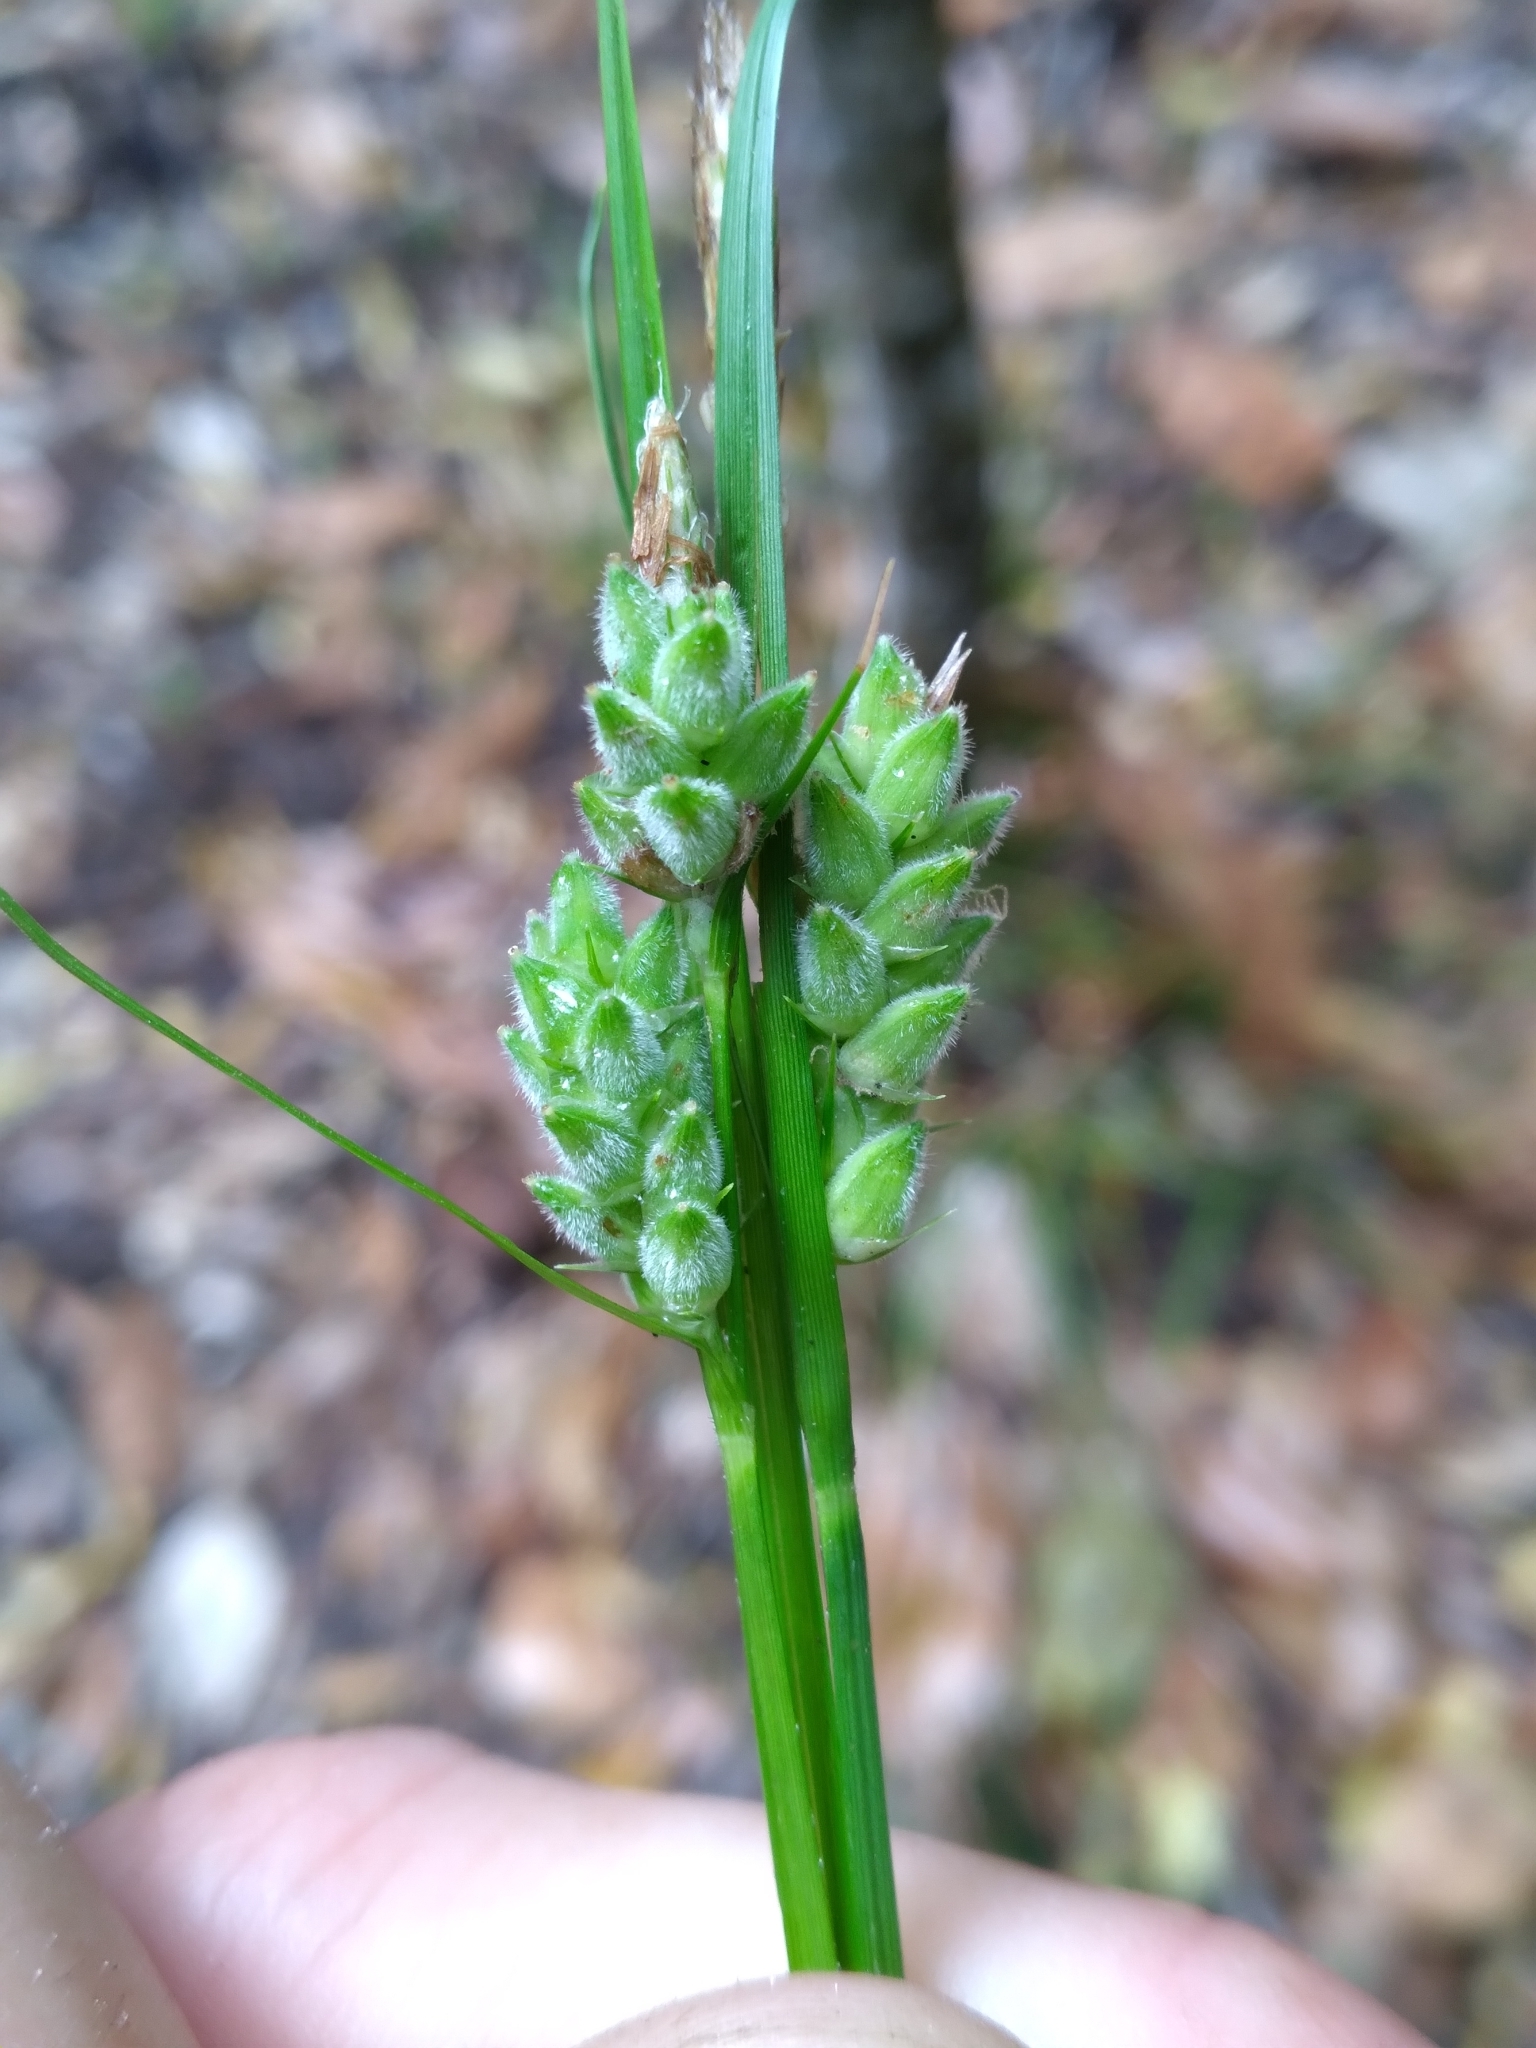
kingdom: Plantae
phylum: Tracheophyta
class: Liliopsida
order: Poales
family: Cyperaceae
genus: Carex
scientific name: Carex dasycarpa
